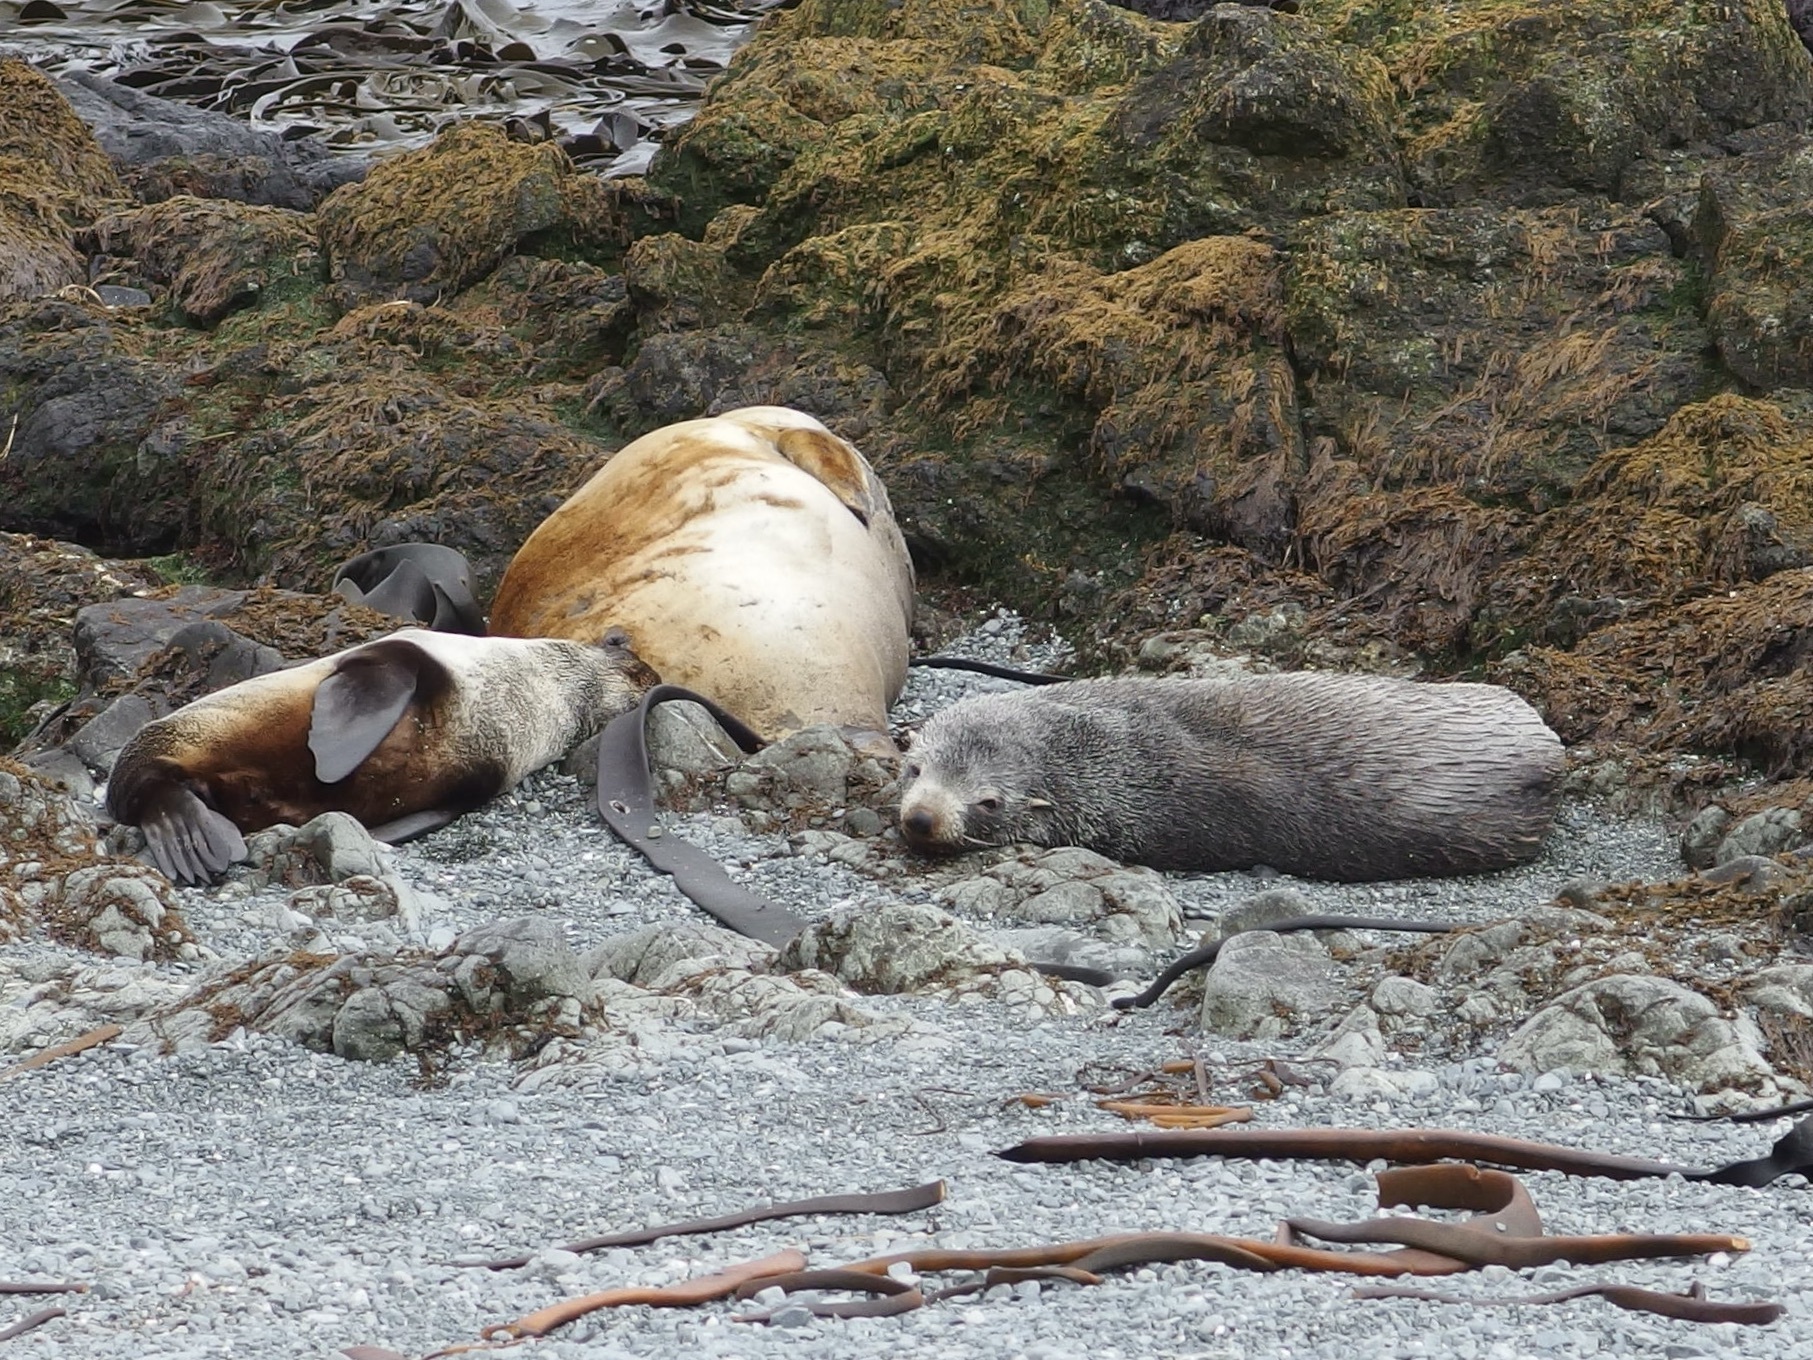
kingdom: Animalia
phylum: Chordata
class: Mammalia
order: Carnivora
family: Otariidae
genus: Arctocephalus
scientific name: Arctocephalus forsteri
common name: New zealand fur seal
